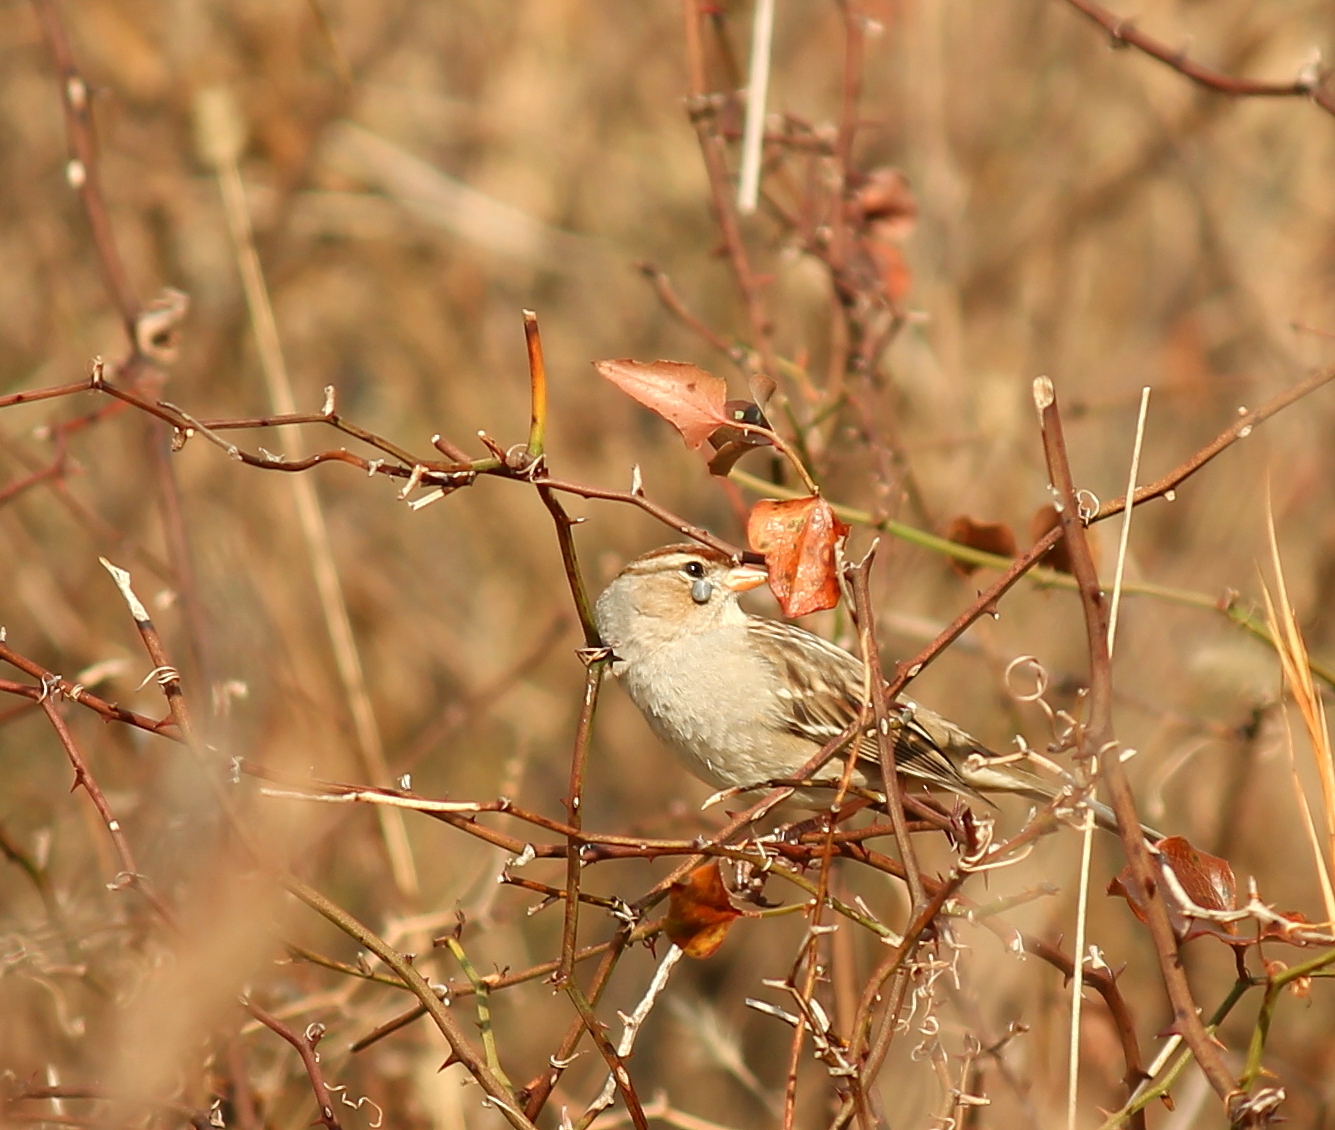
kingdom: Animalia
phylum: Chordata
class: Aves
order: Passeriformes
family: Passerellidae
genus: Zonotrichia
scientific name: Zonotrichia leucophrys
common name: White-crowned sparrow
